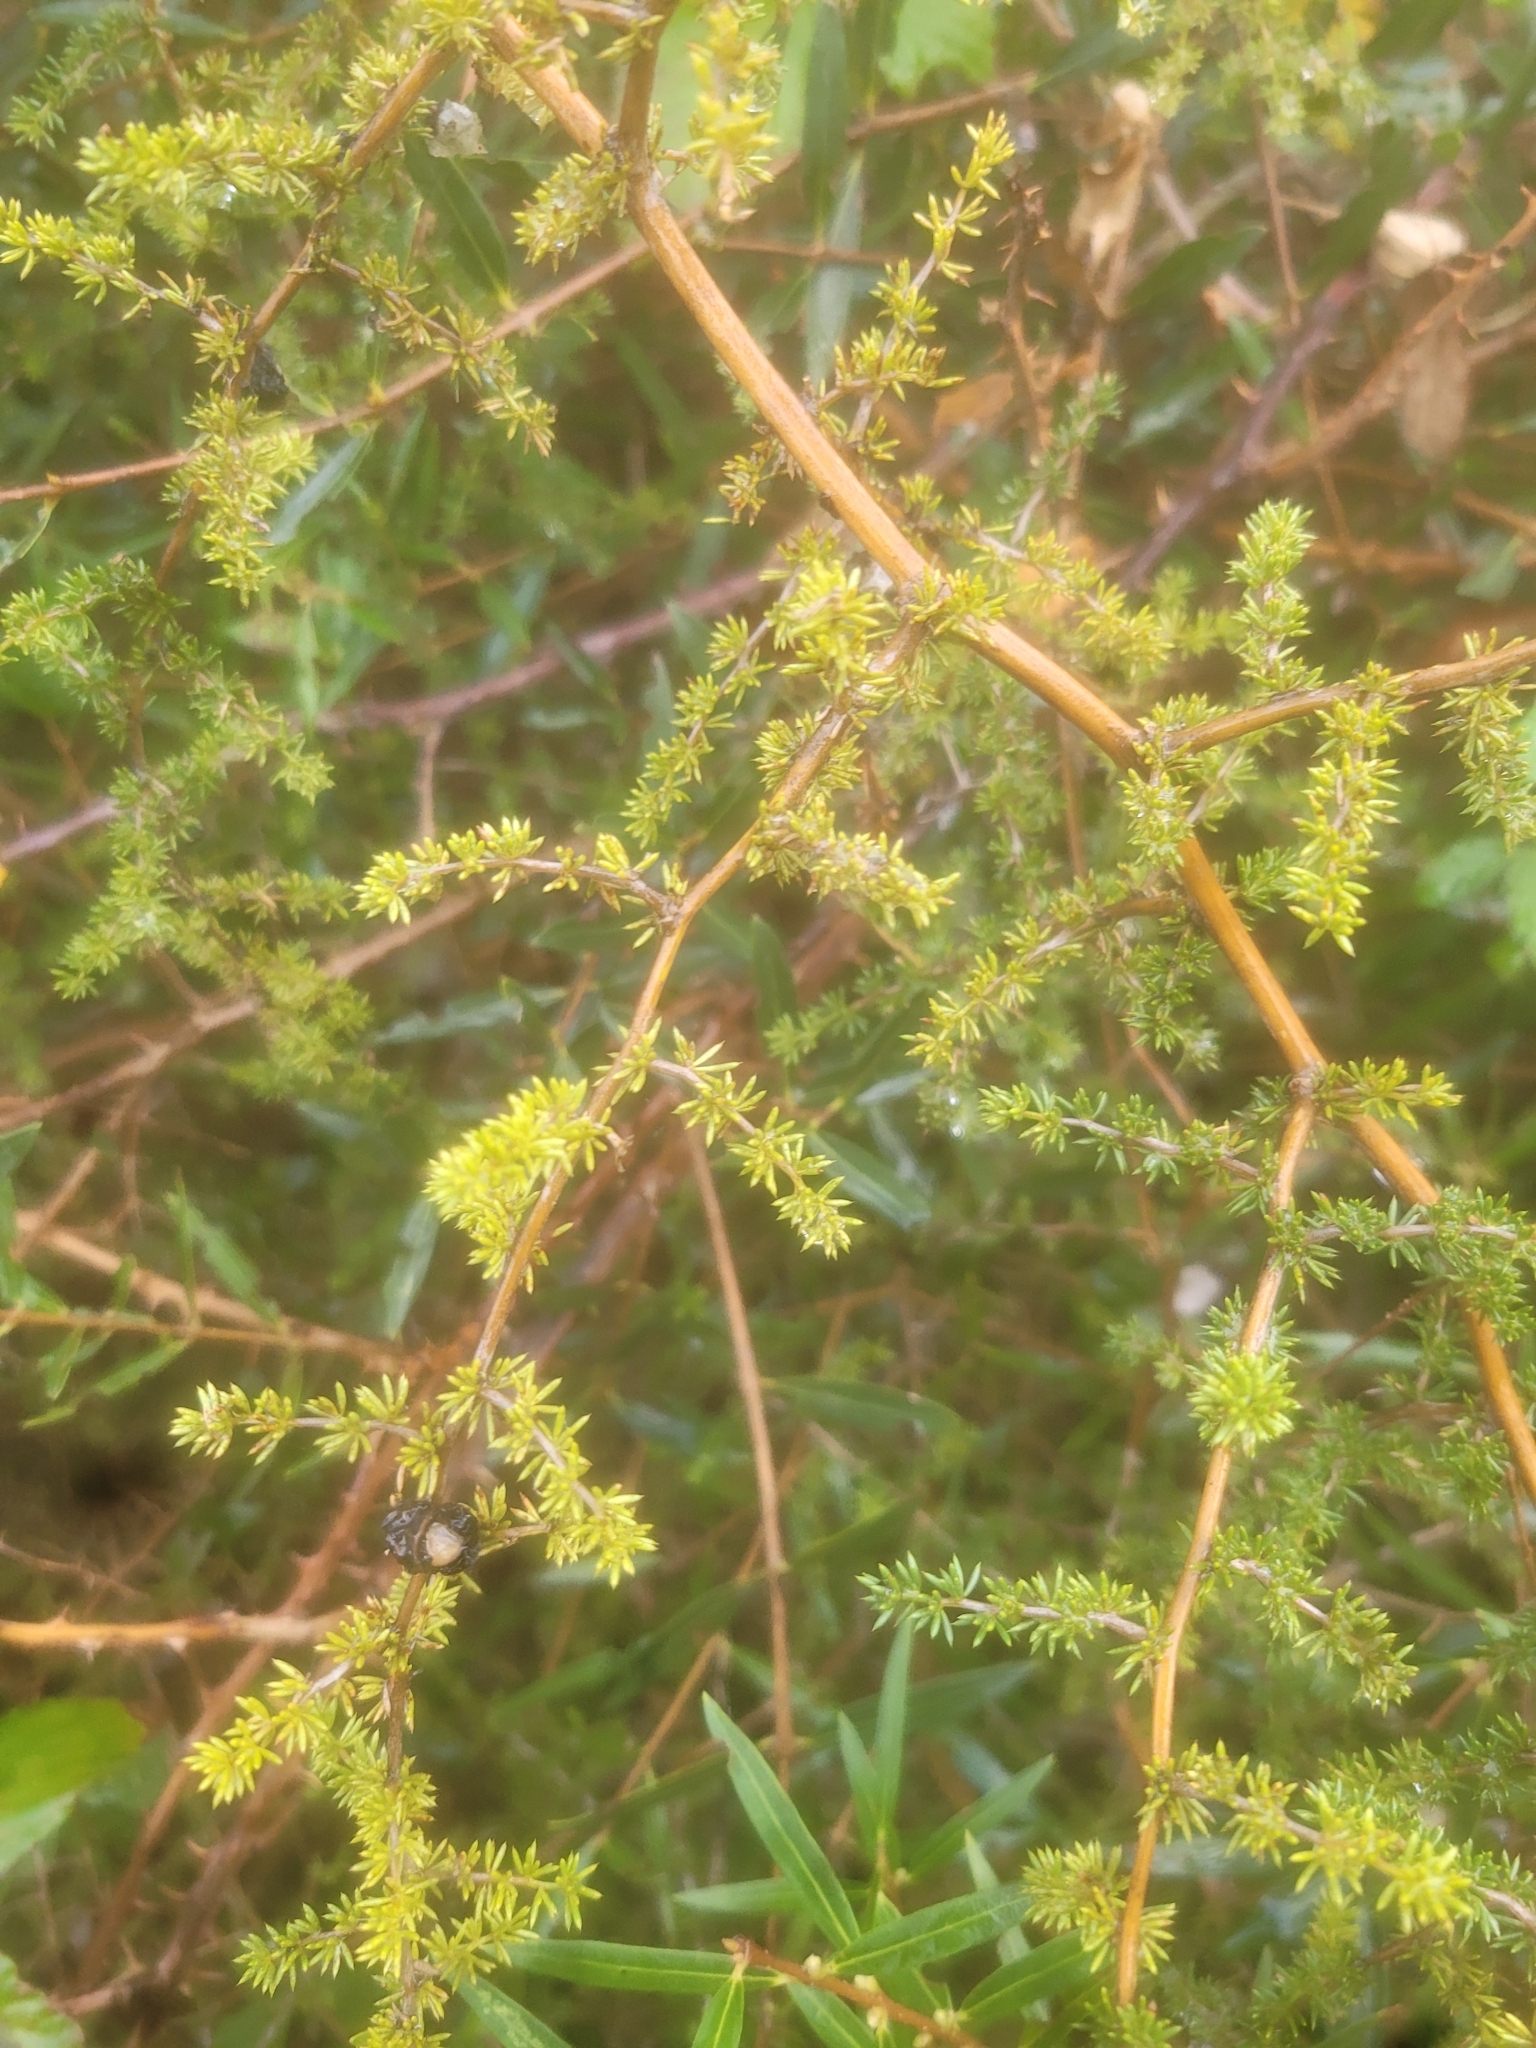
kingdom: Plantae
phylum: Tracheophyta
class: Liliopsida
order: Asparagales
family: Asparagaceae
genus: Asparagus
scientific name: Asparagus acutifolius
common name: Wild asparagus
